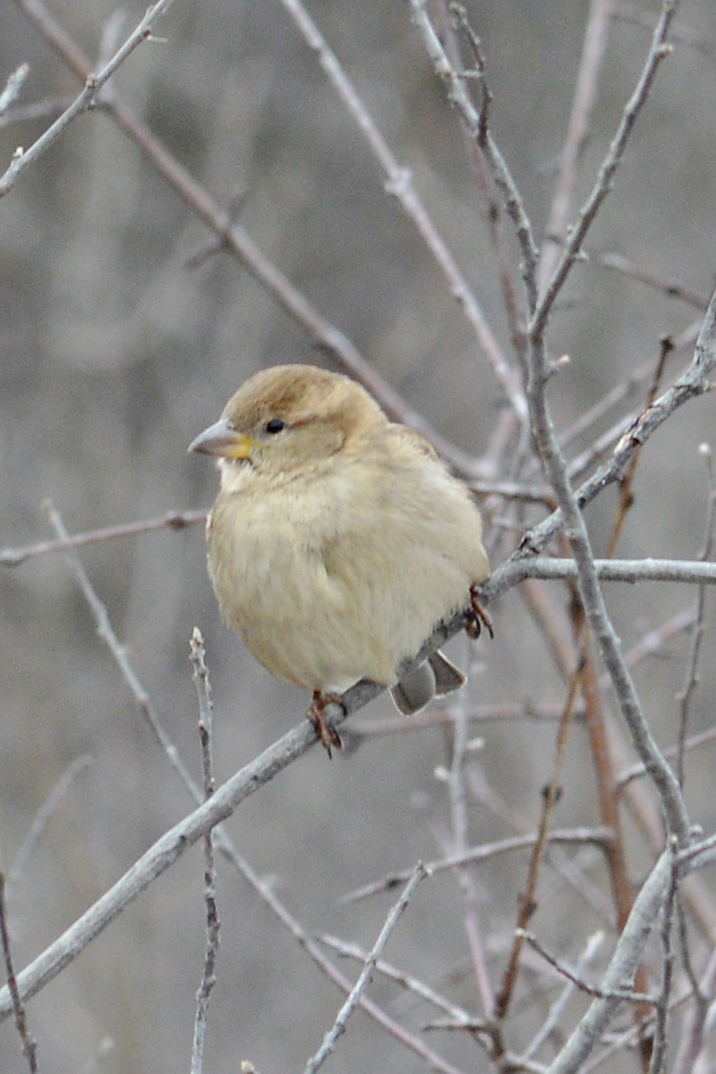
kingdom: Animalia
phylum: Chordata
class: Aves
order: Passeriformes
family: Passeridae
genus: Passer
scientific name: Passer domesticus
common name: House sparrow
